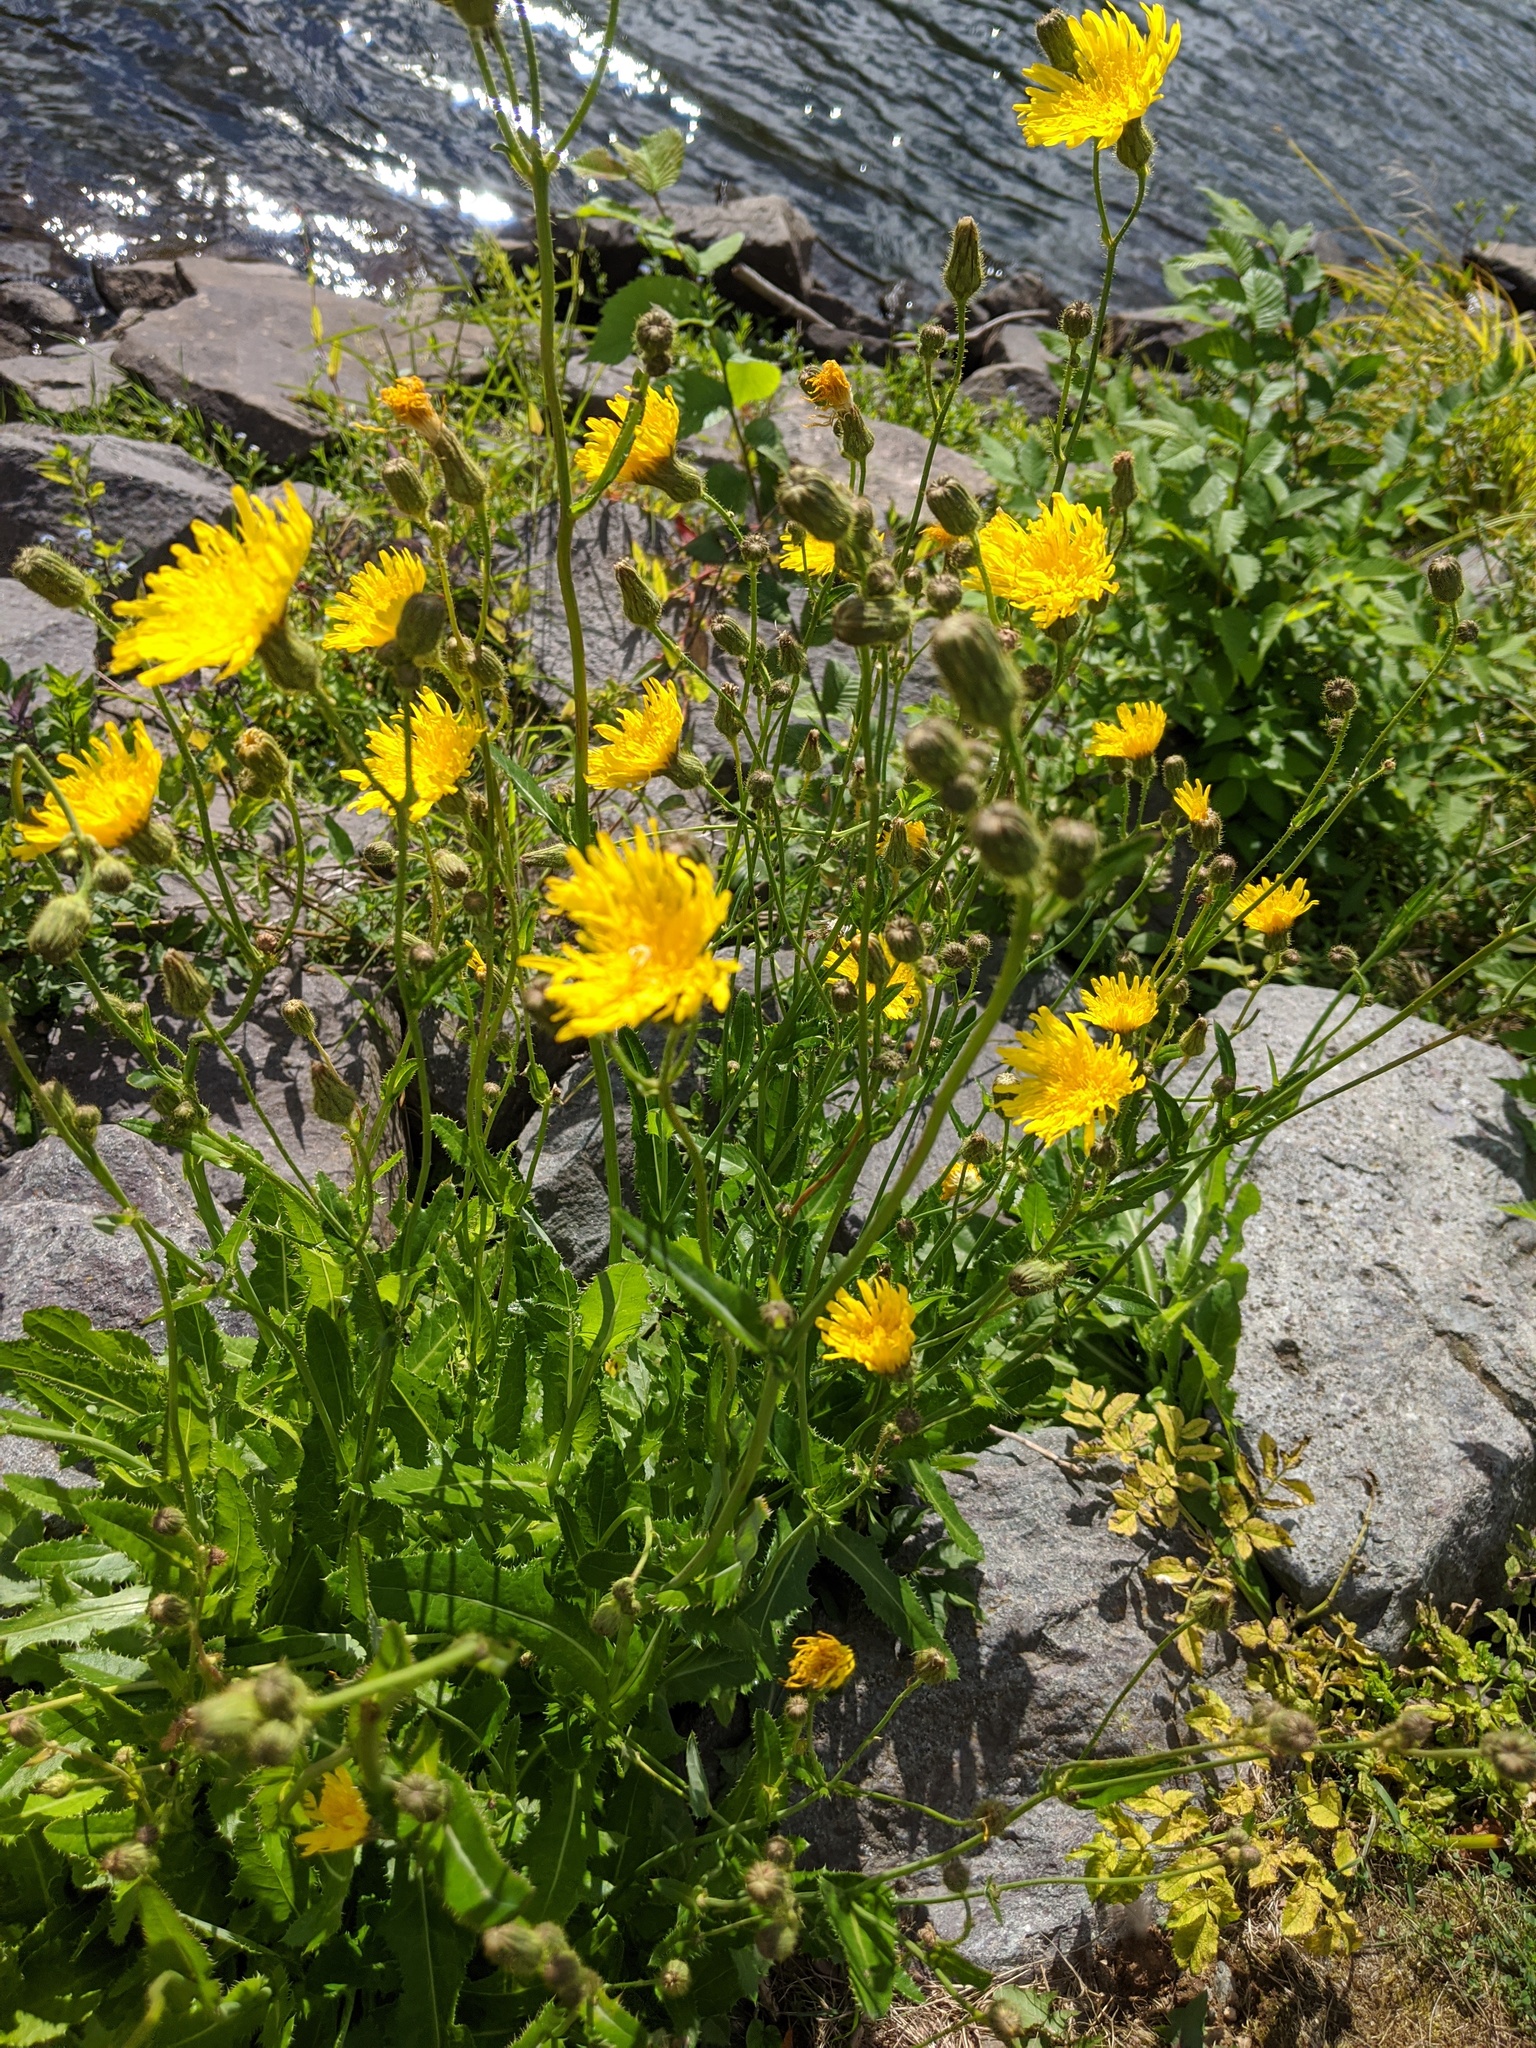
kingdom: Plantae
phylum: Tracheophyta
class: Magnoliopsida
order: Asterales
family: Asteraceae
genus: Sonchus
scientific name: Sonchus arvensis
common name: Perennial sow-thistle
